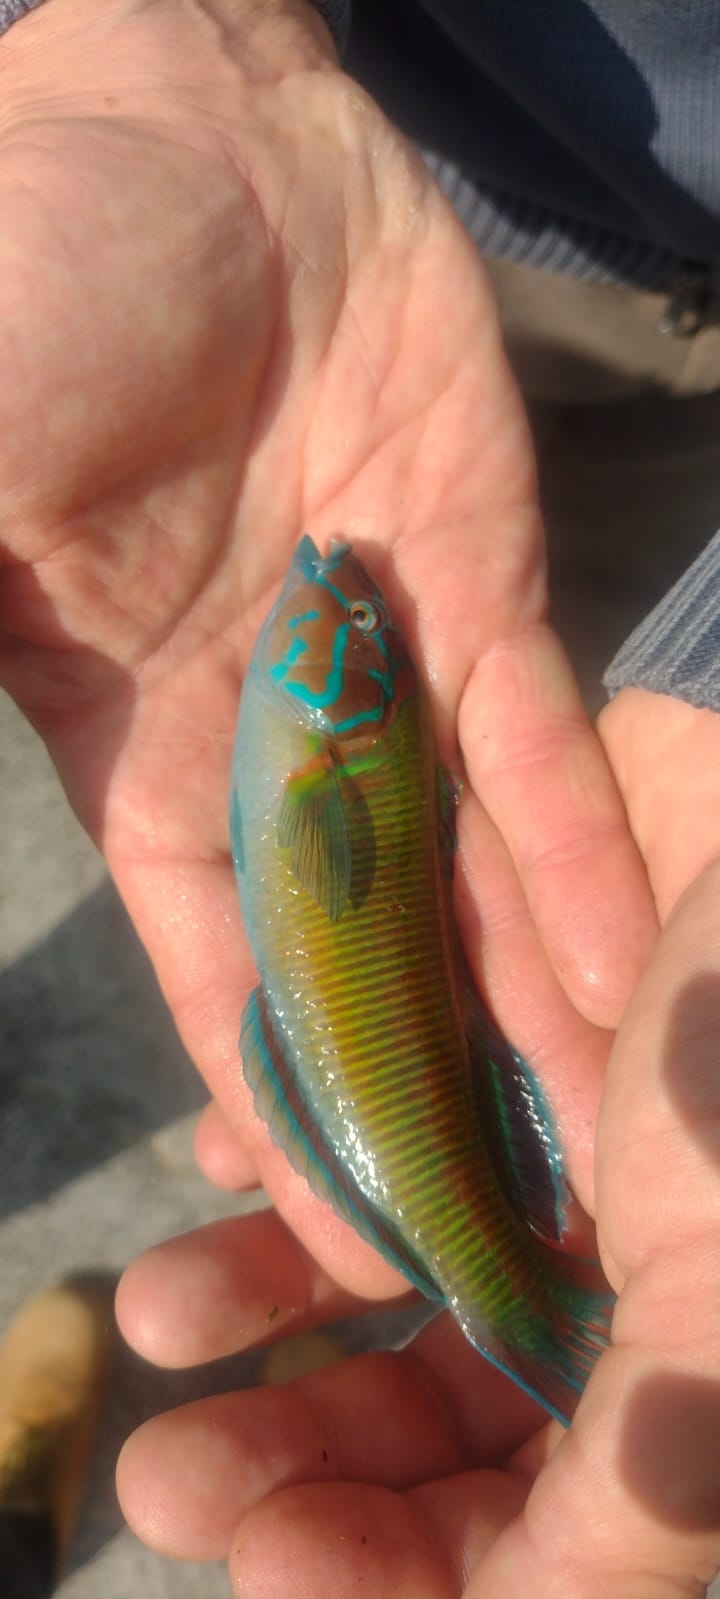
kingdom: Animalia
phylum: Chordata
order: Perciformes
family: Labridae
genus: Thalassoma
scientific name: Thalassoma pavo
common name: Ornate wrasse
